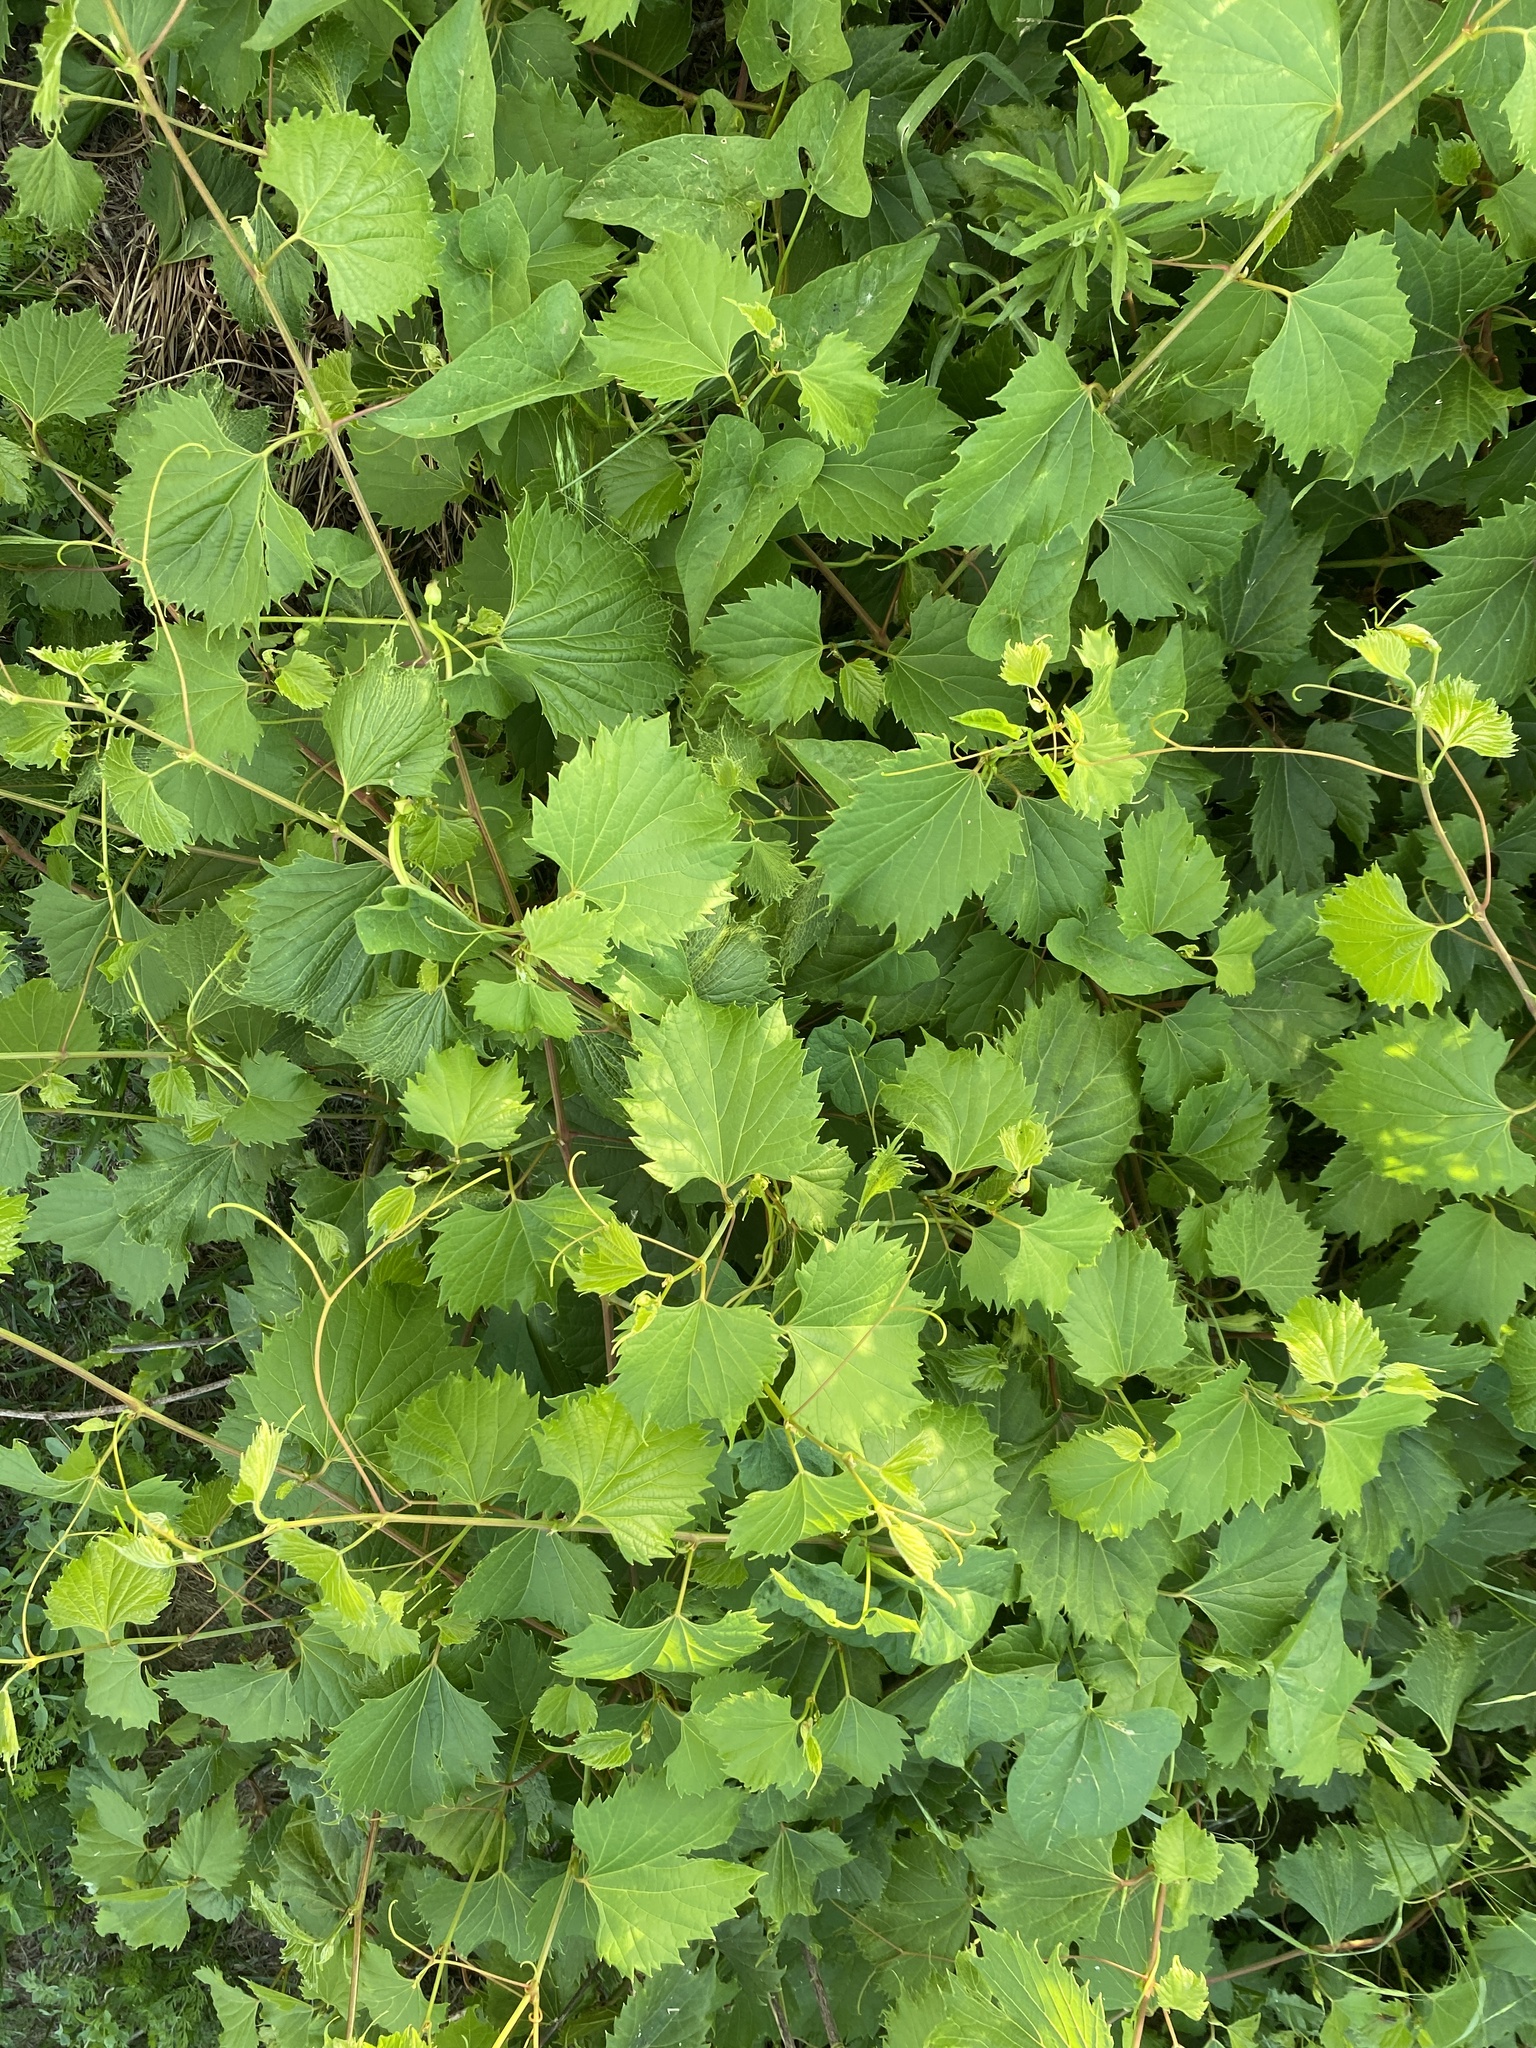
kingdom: Plantae
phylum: Tracheophyta
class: Magnoliopsida
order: Vitales
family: Vitaceae
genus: Vitis
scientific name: Vitis riparia
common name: Frost grape
